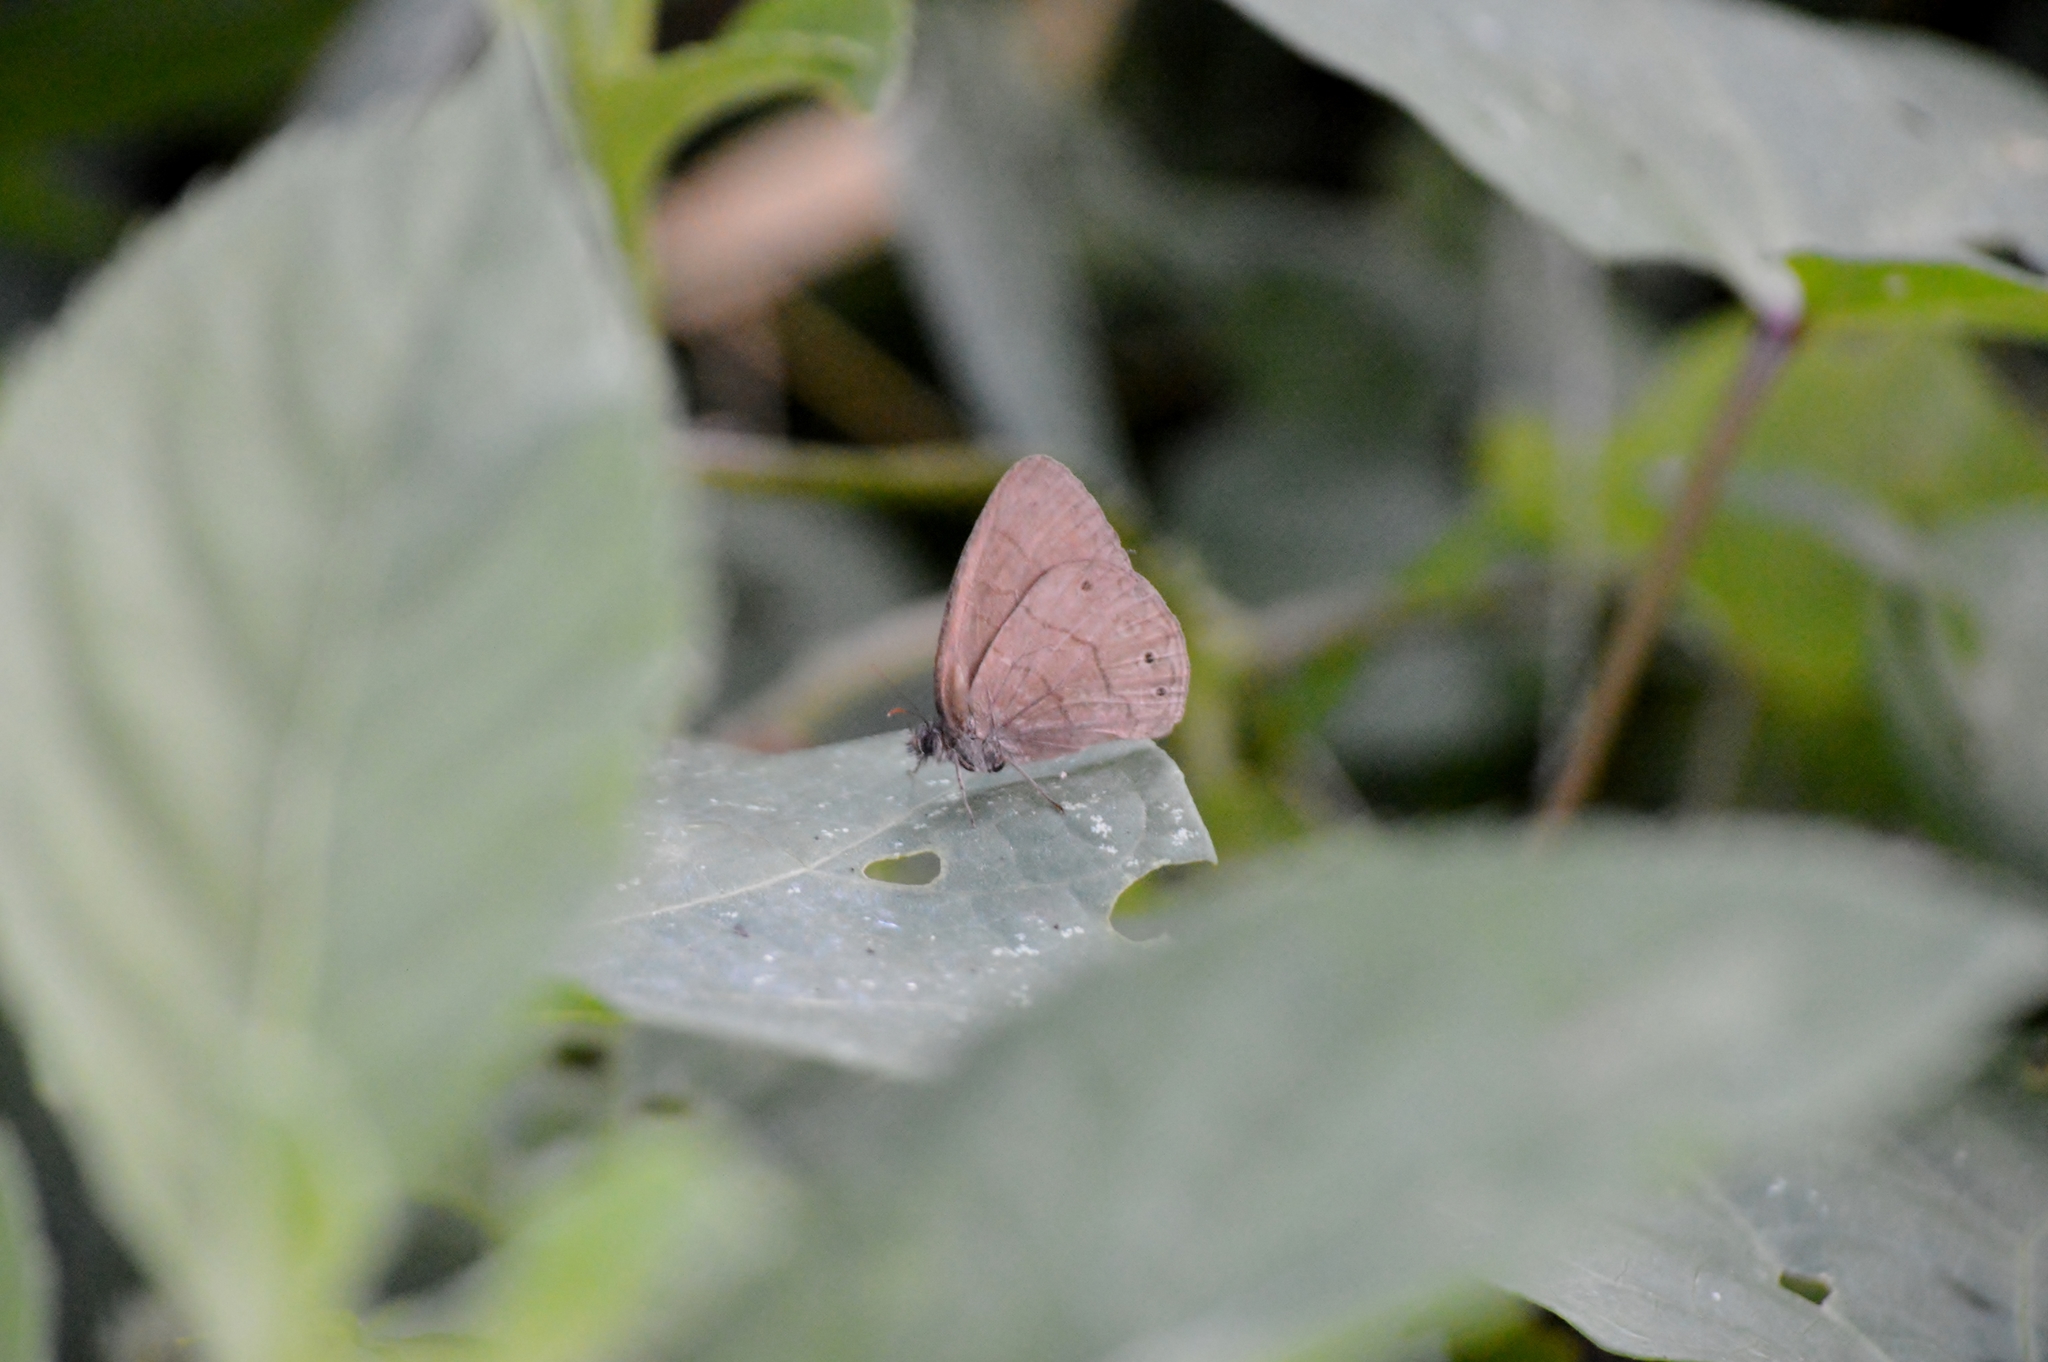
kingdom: Animalia
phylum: Arthropoda
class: Insecta
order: Lepidoptera
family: Nymphalidae
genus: Hermeuptychia
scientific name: Hermeuptychia hermes
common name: Hermes satyr
